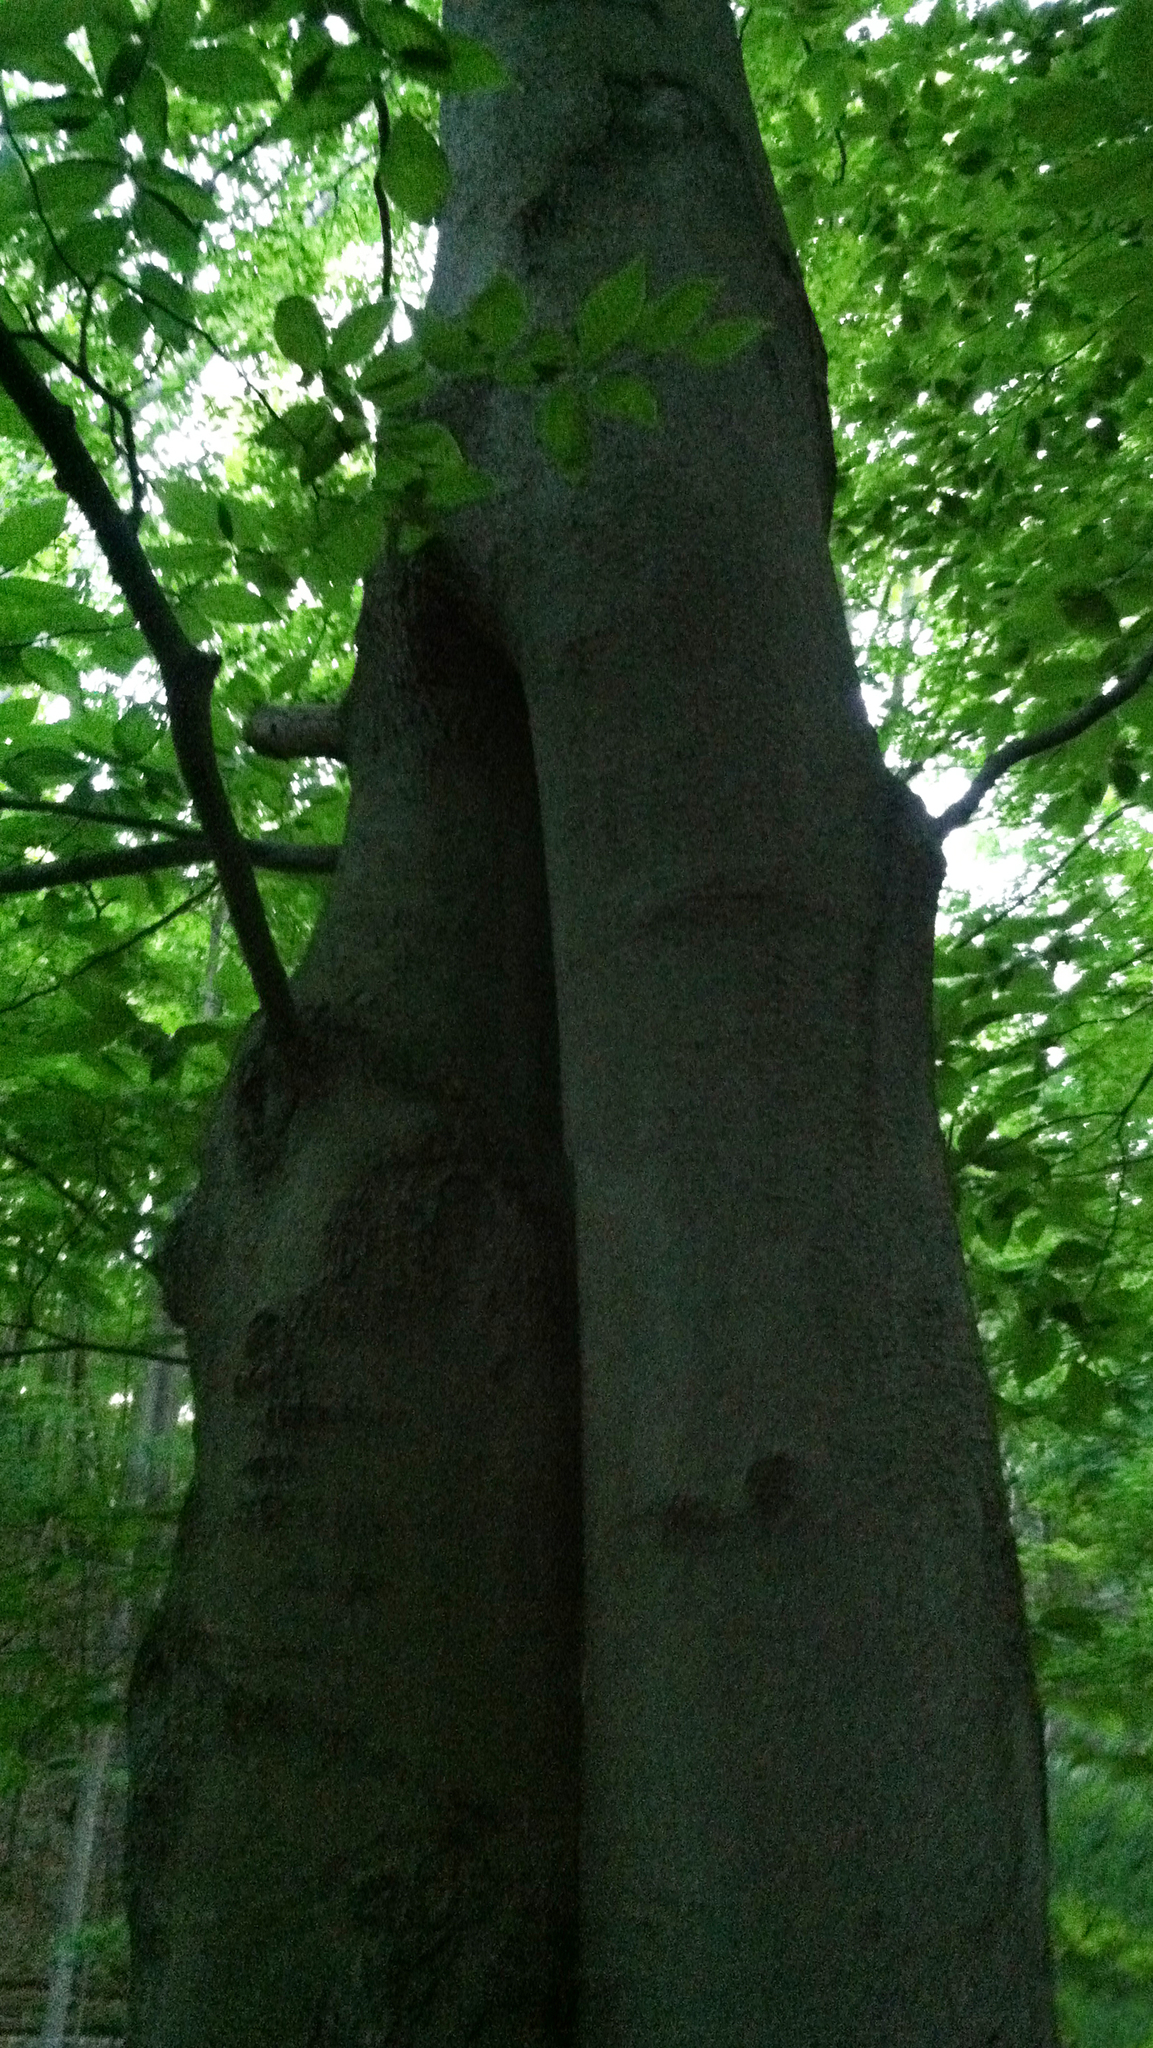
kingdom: Plantae
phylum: Tracheophyta
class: Magnoliopsida
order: Fagales
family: Fagaceae
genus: Fagus
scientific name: Fagus grandifolia
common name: American beech
